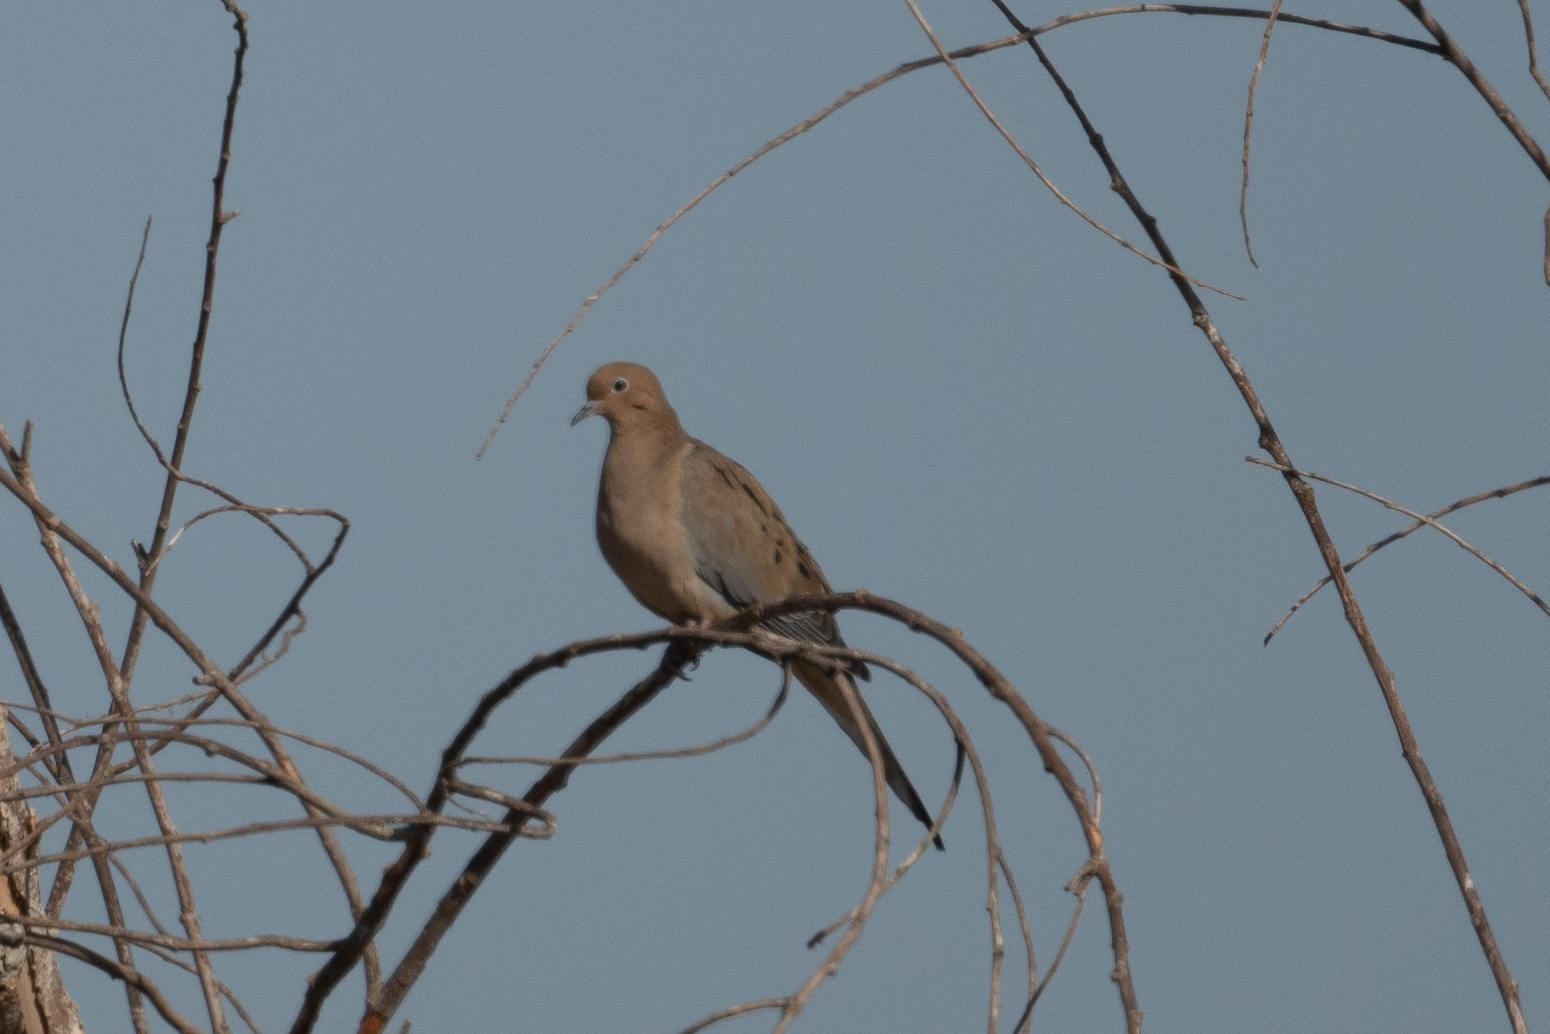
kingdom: Animalia
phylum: Chordata
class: Aves
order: Columbiformes
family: Columbidae
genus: Zenaida
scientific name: Zenaida macroura
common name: Mourning dove
